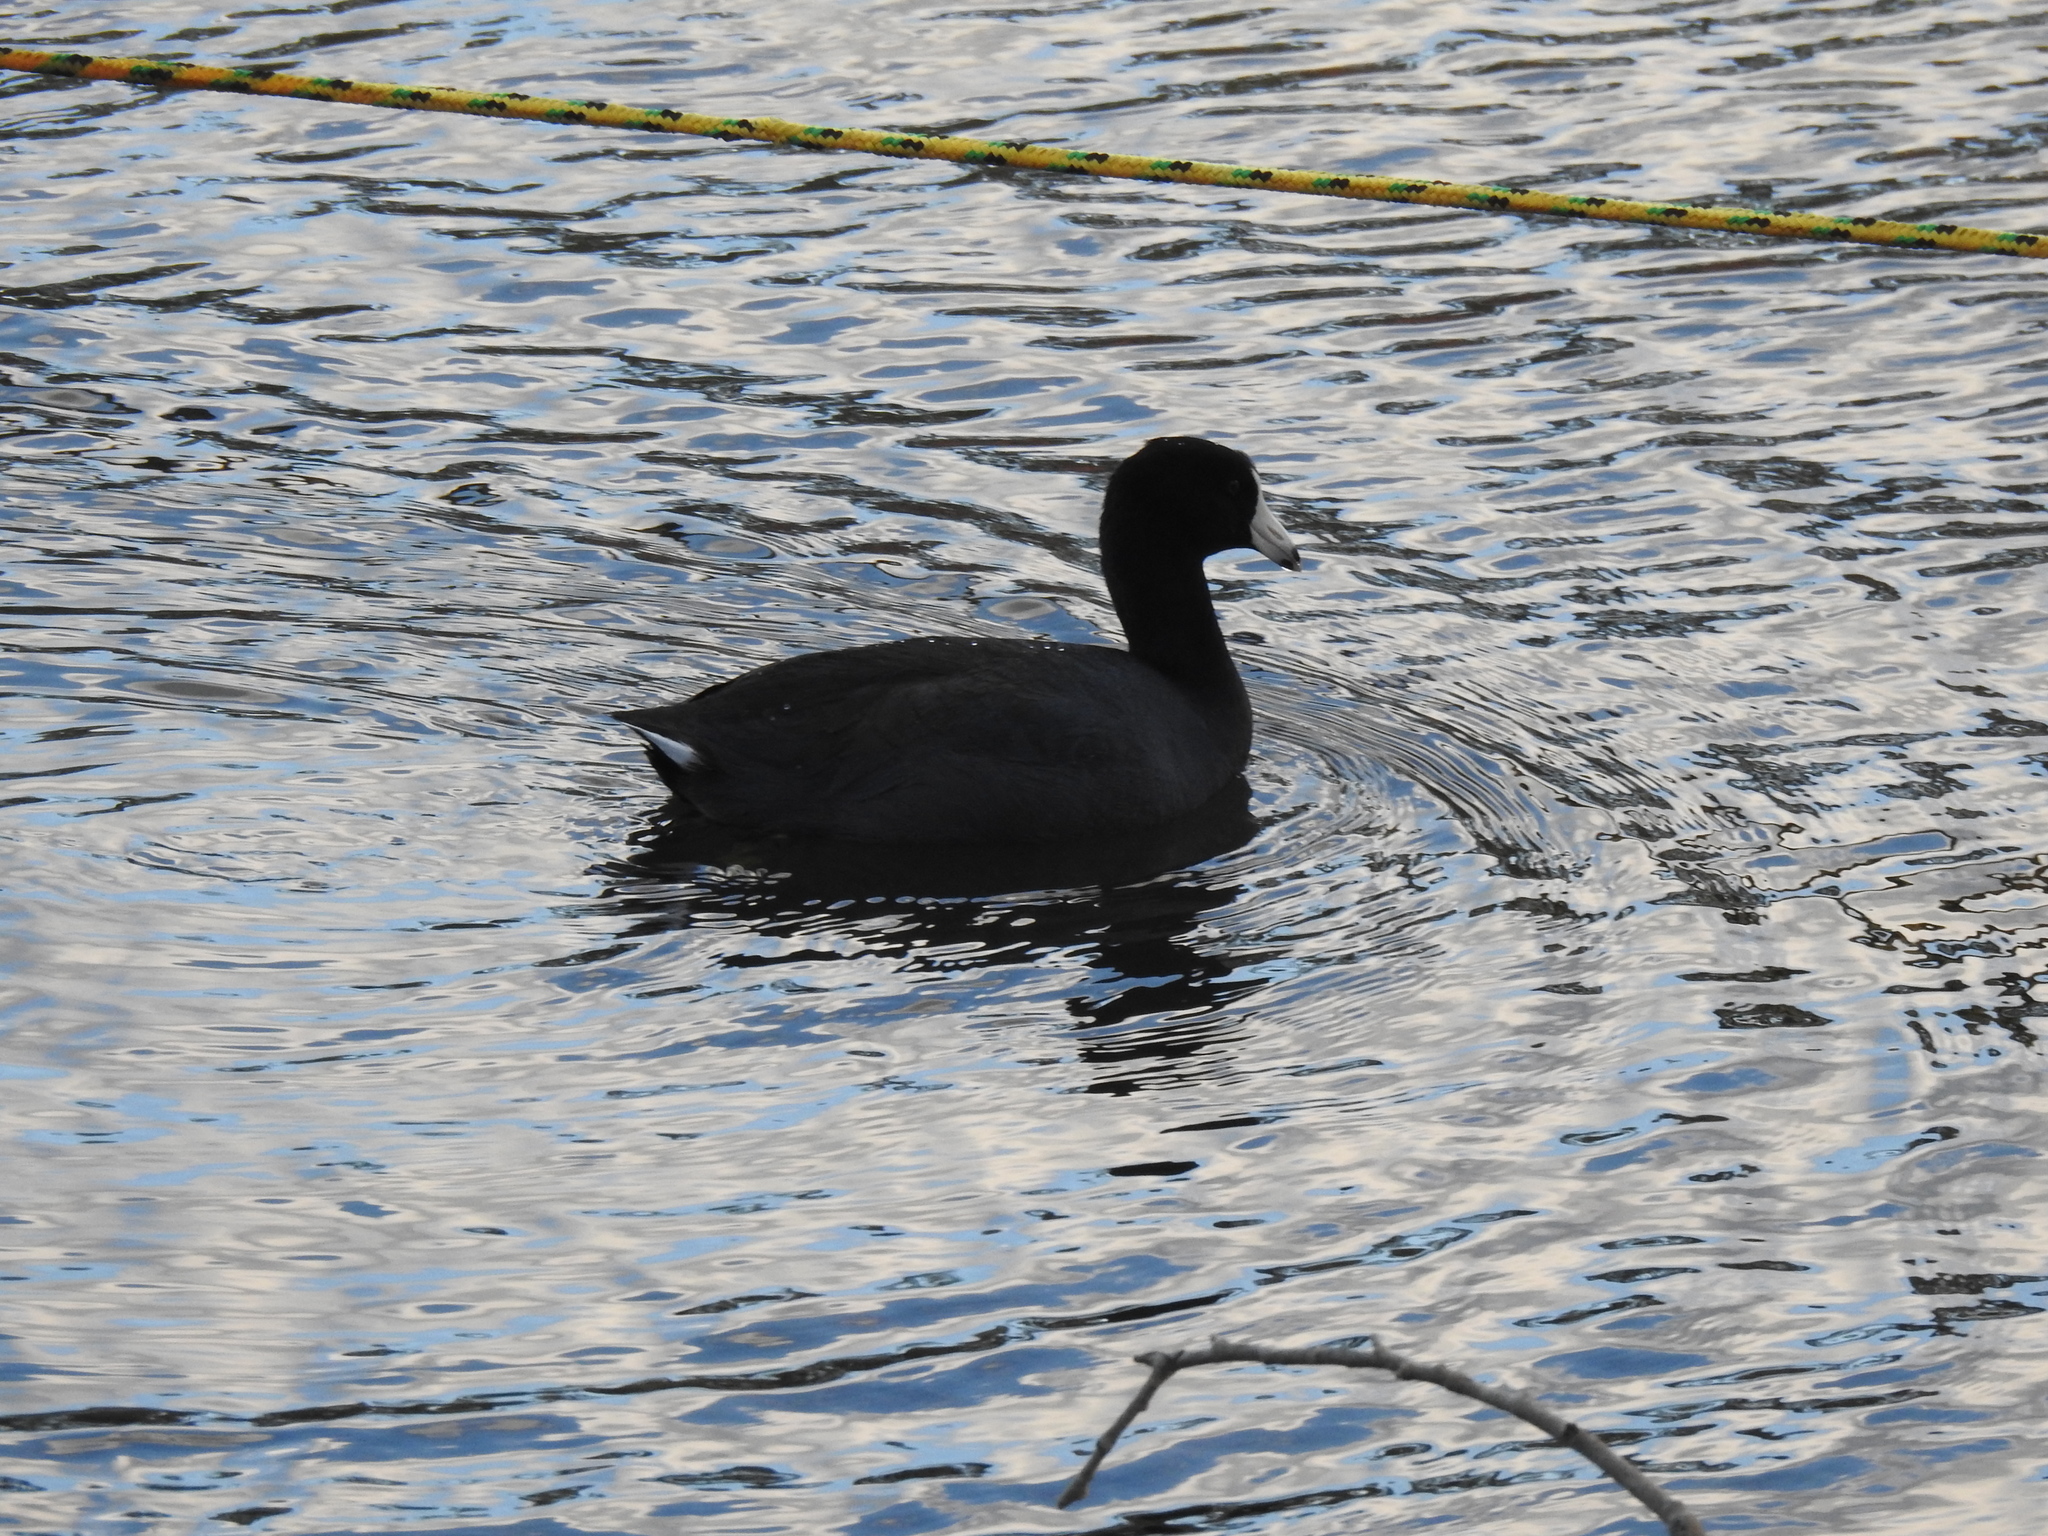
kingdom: Animalia
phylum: Chordata
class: Aves
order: Gruiformes
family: Rallidae
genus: Fulica
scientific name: Fulica americana
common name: American coot
